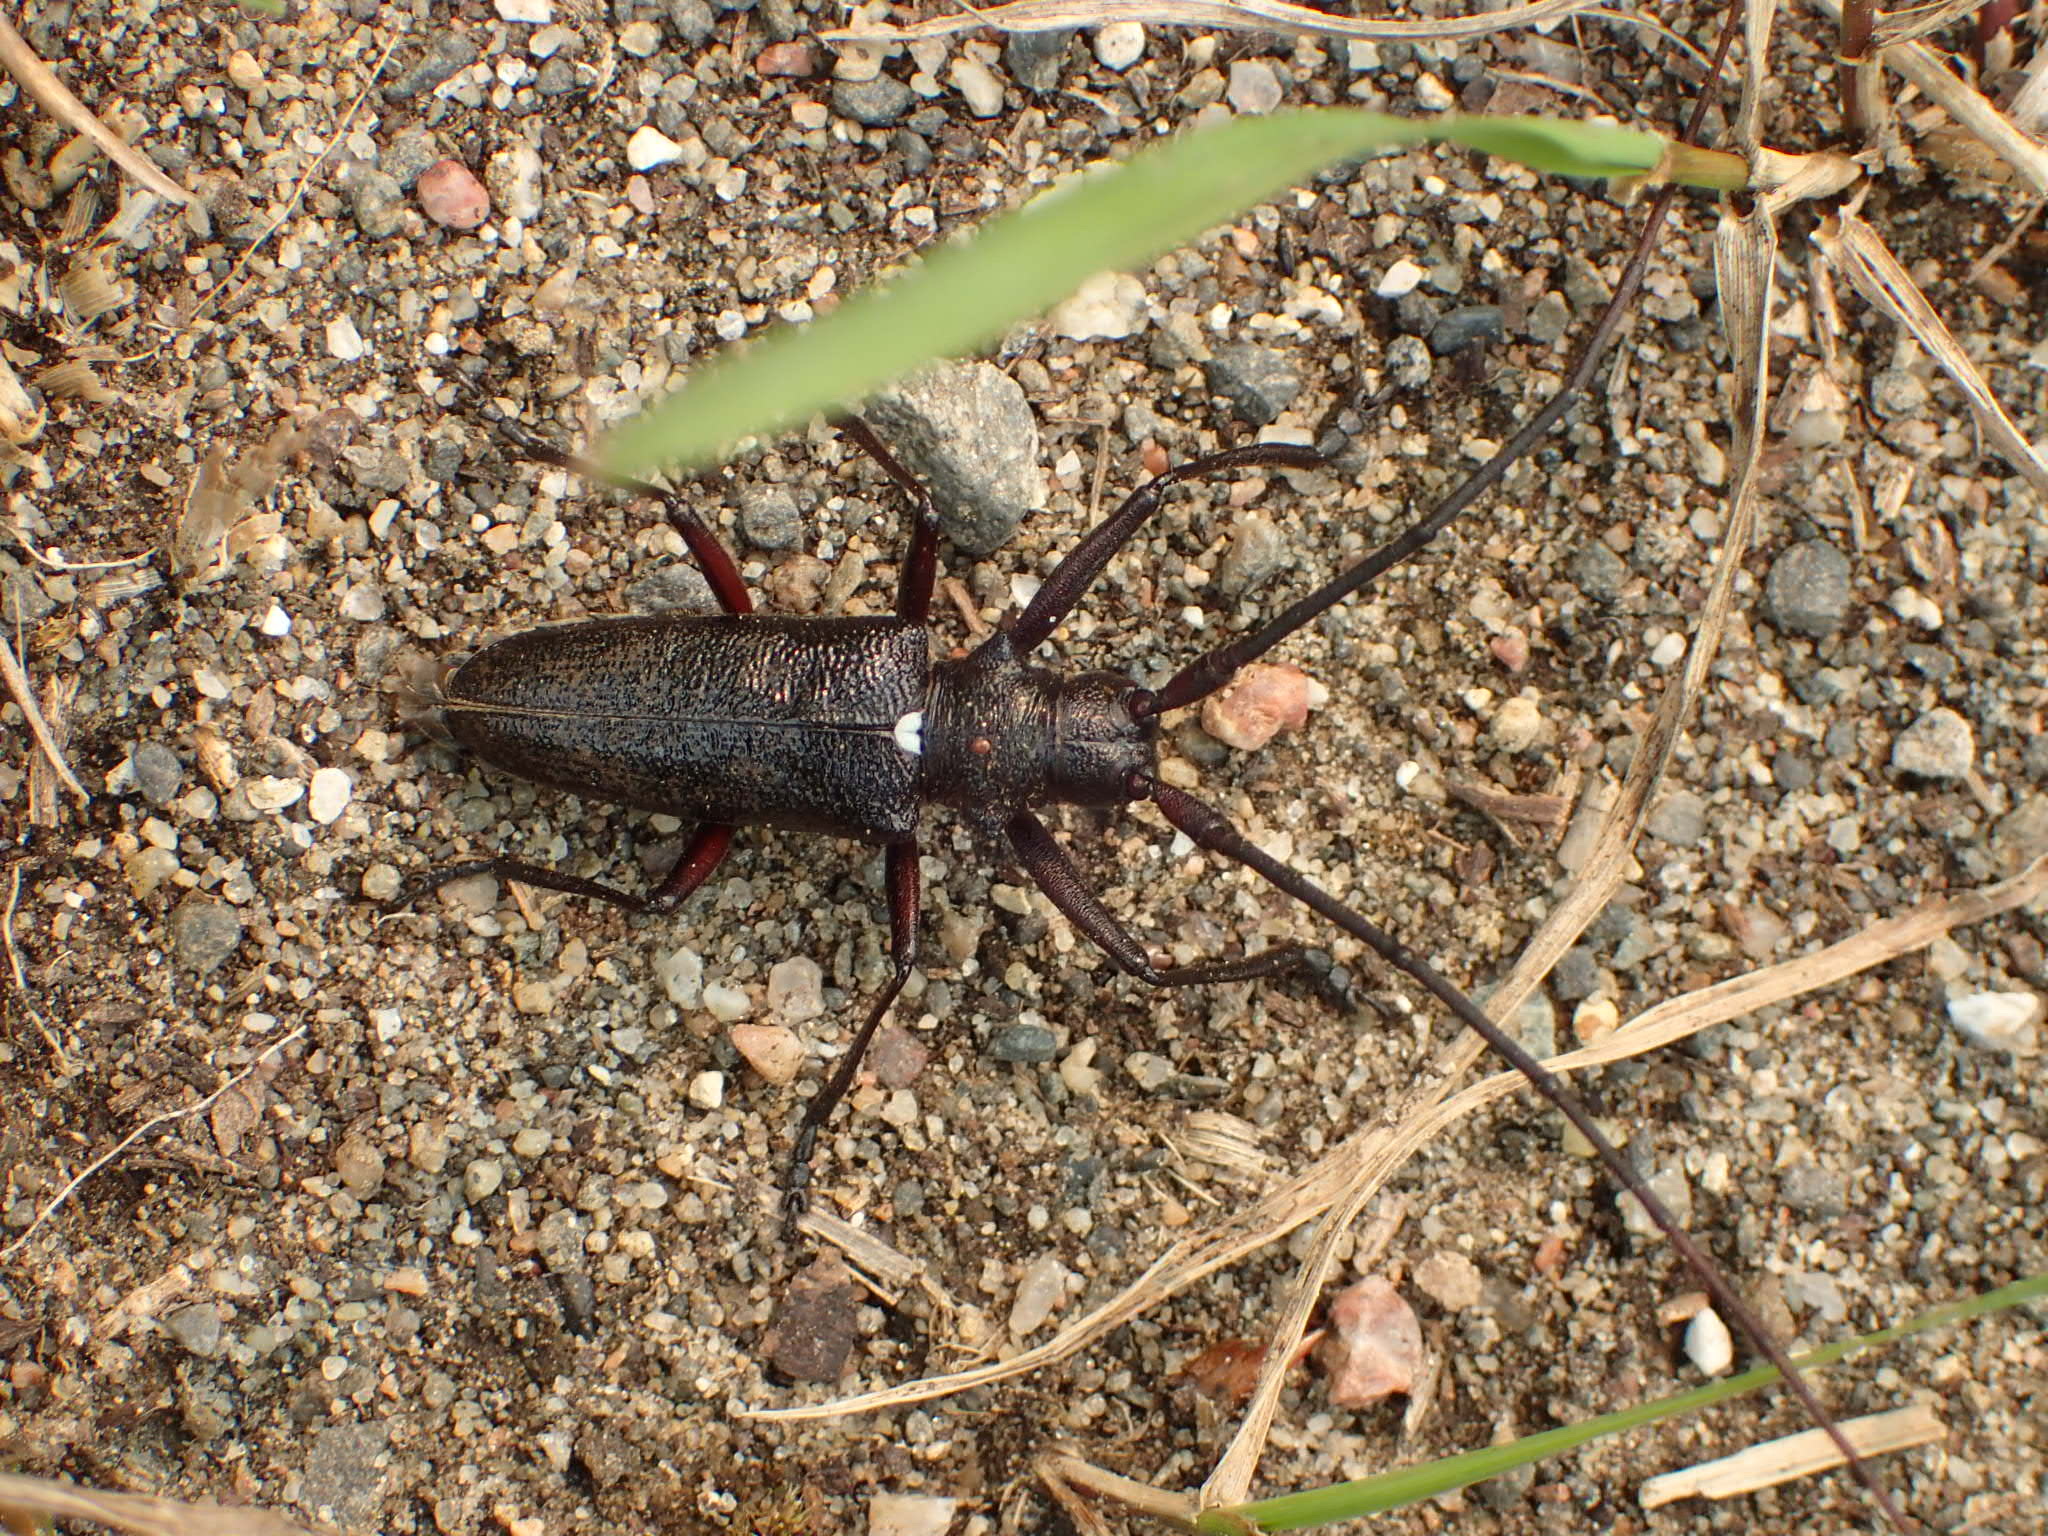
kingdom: Animalia
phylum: Arthropoda
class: Insecta
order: Coleoptera
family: Cerambycidae
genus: Monochamus
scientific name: Monochamus scutellatus
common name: White-spotted sawyer beetle
